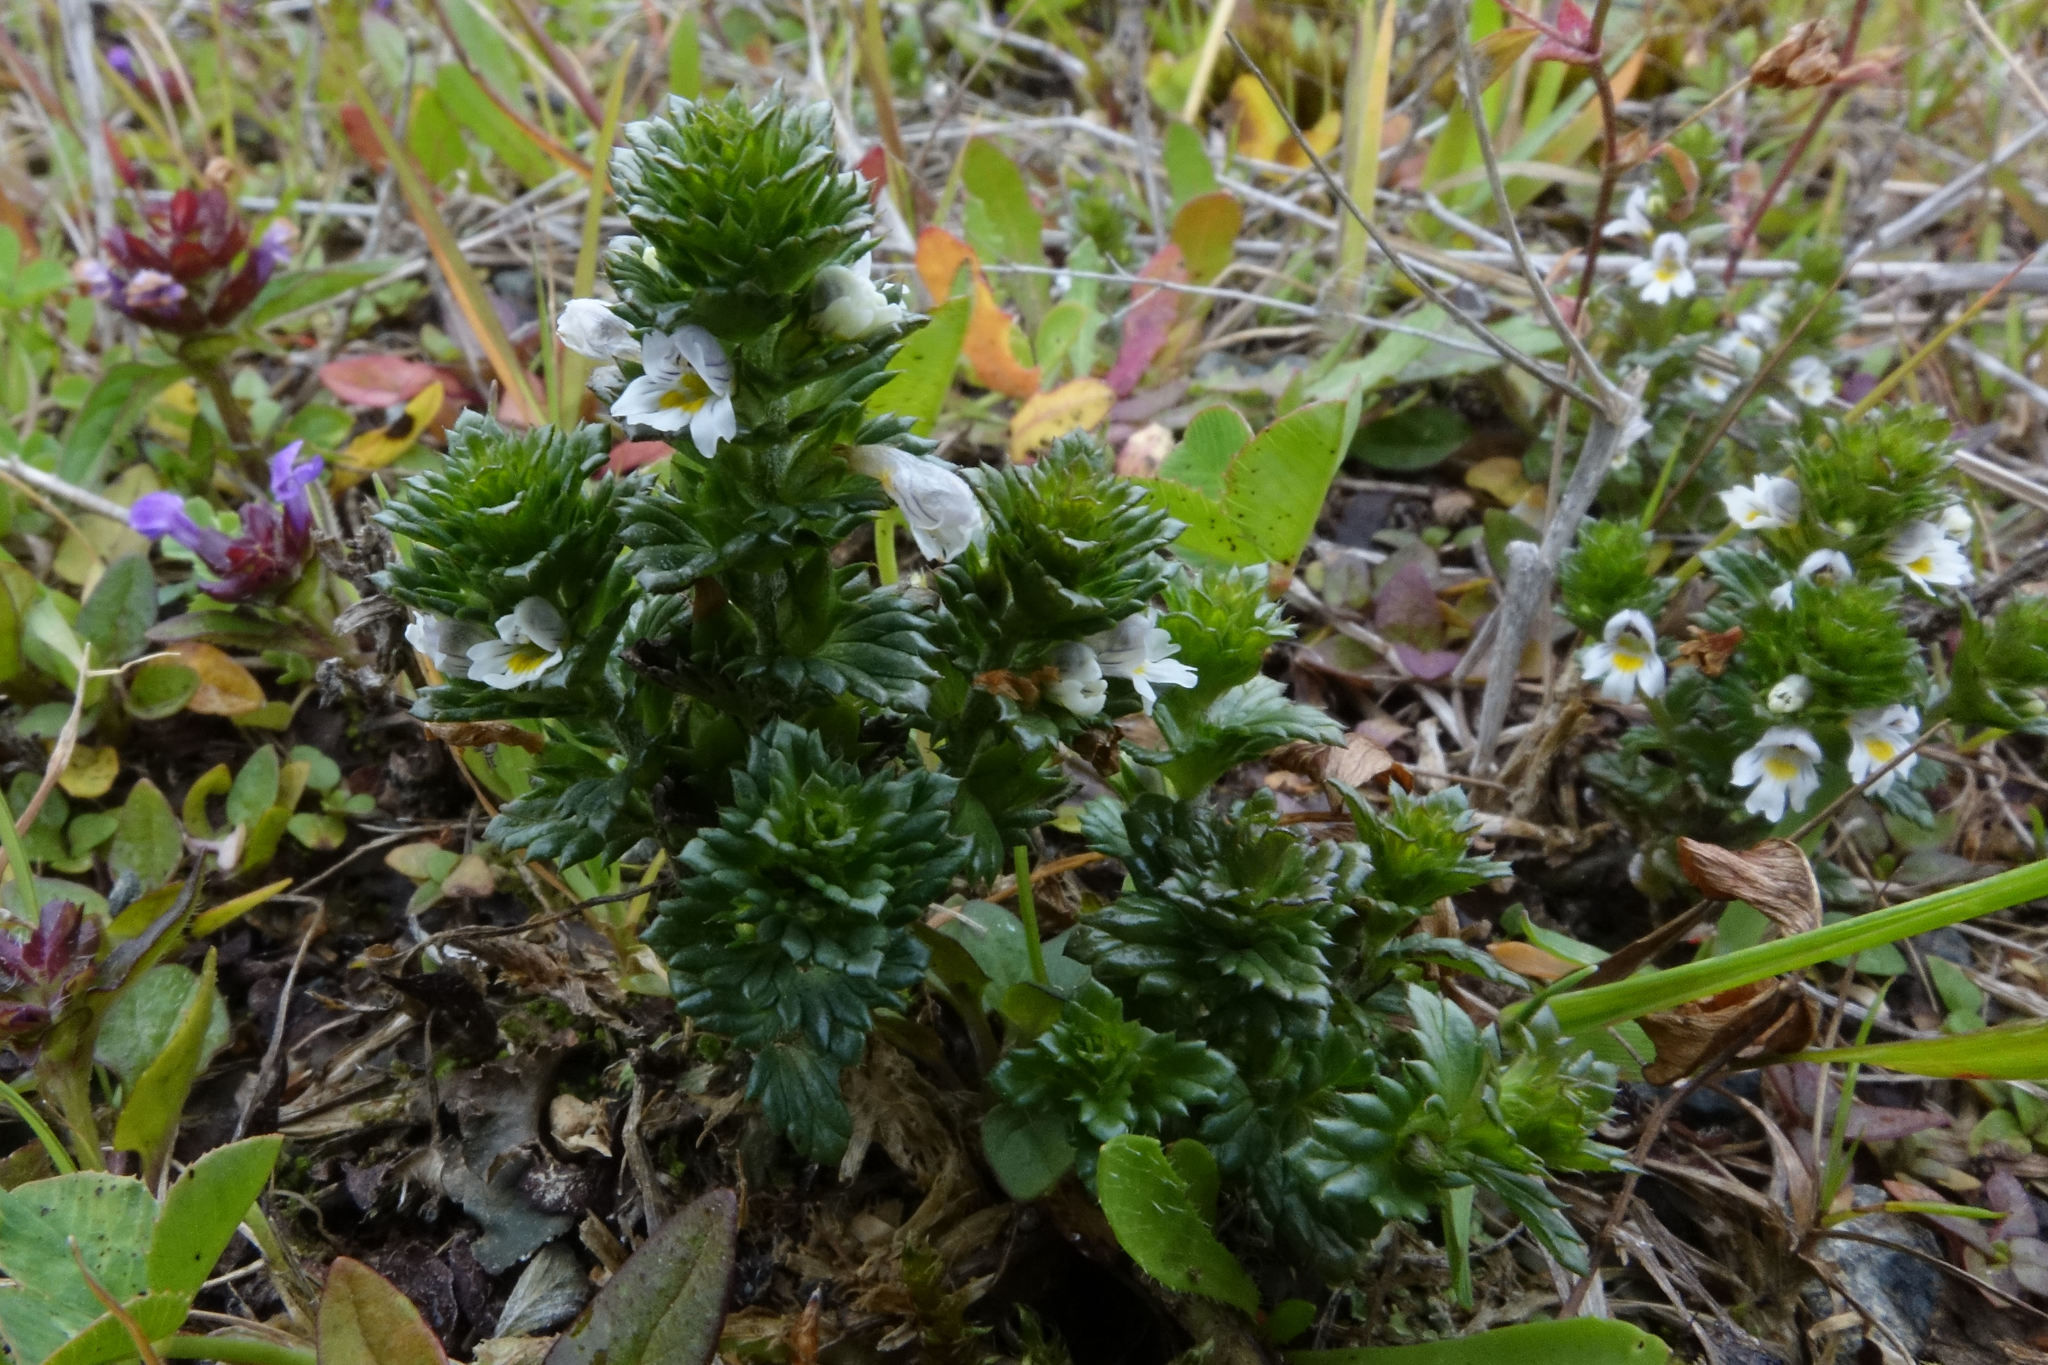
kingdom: Plantae
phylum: Tracheophyta
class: Magnoliopsida
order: Lamiales
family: Orobanchaceae
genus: Euphrasia
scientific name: Euphrasia nemorosa
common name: Common eyebright
